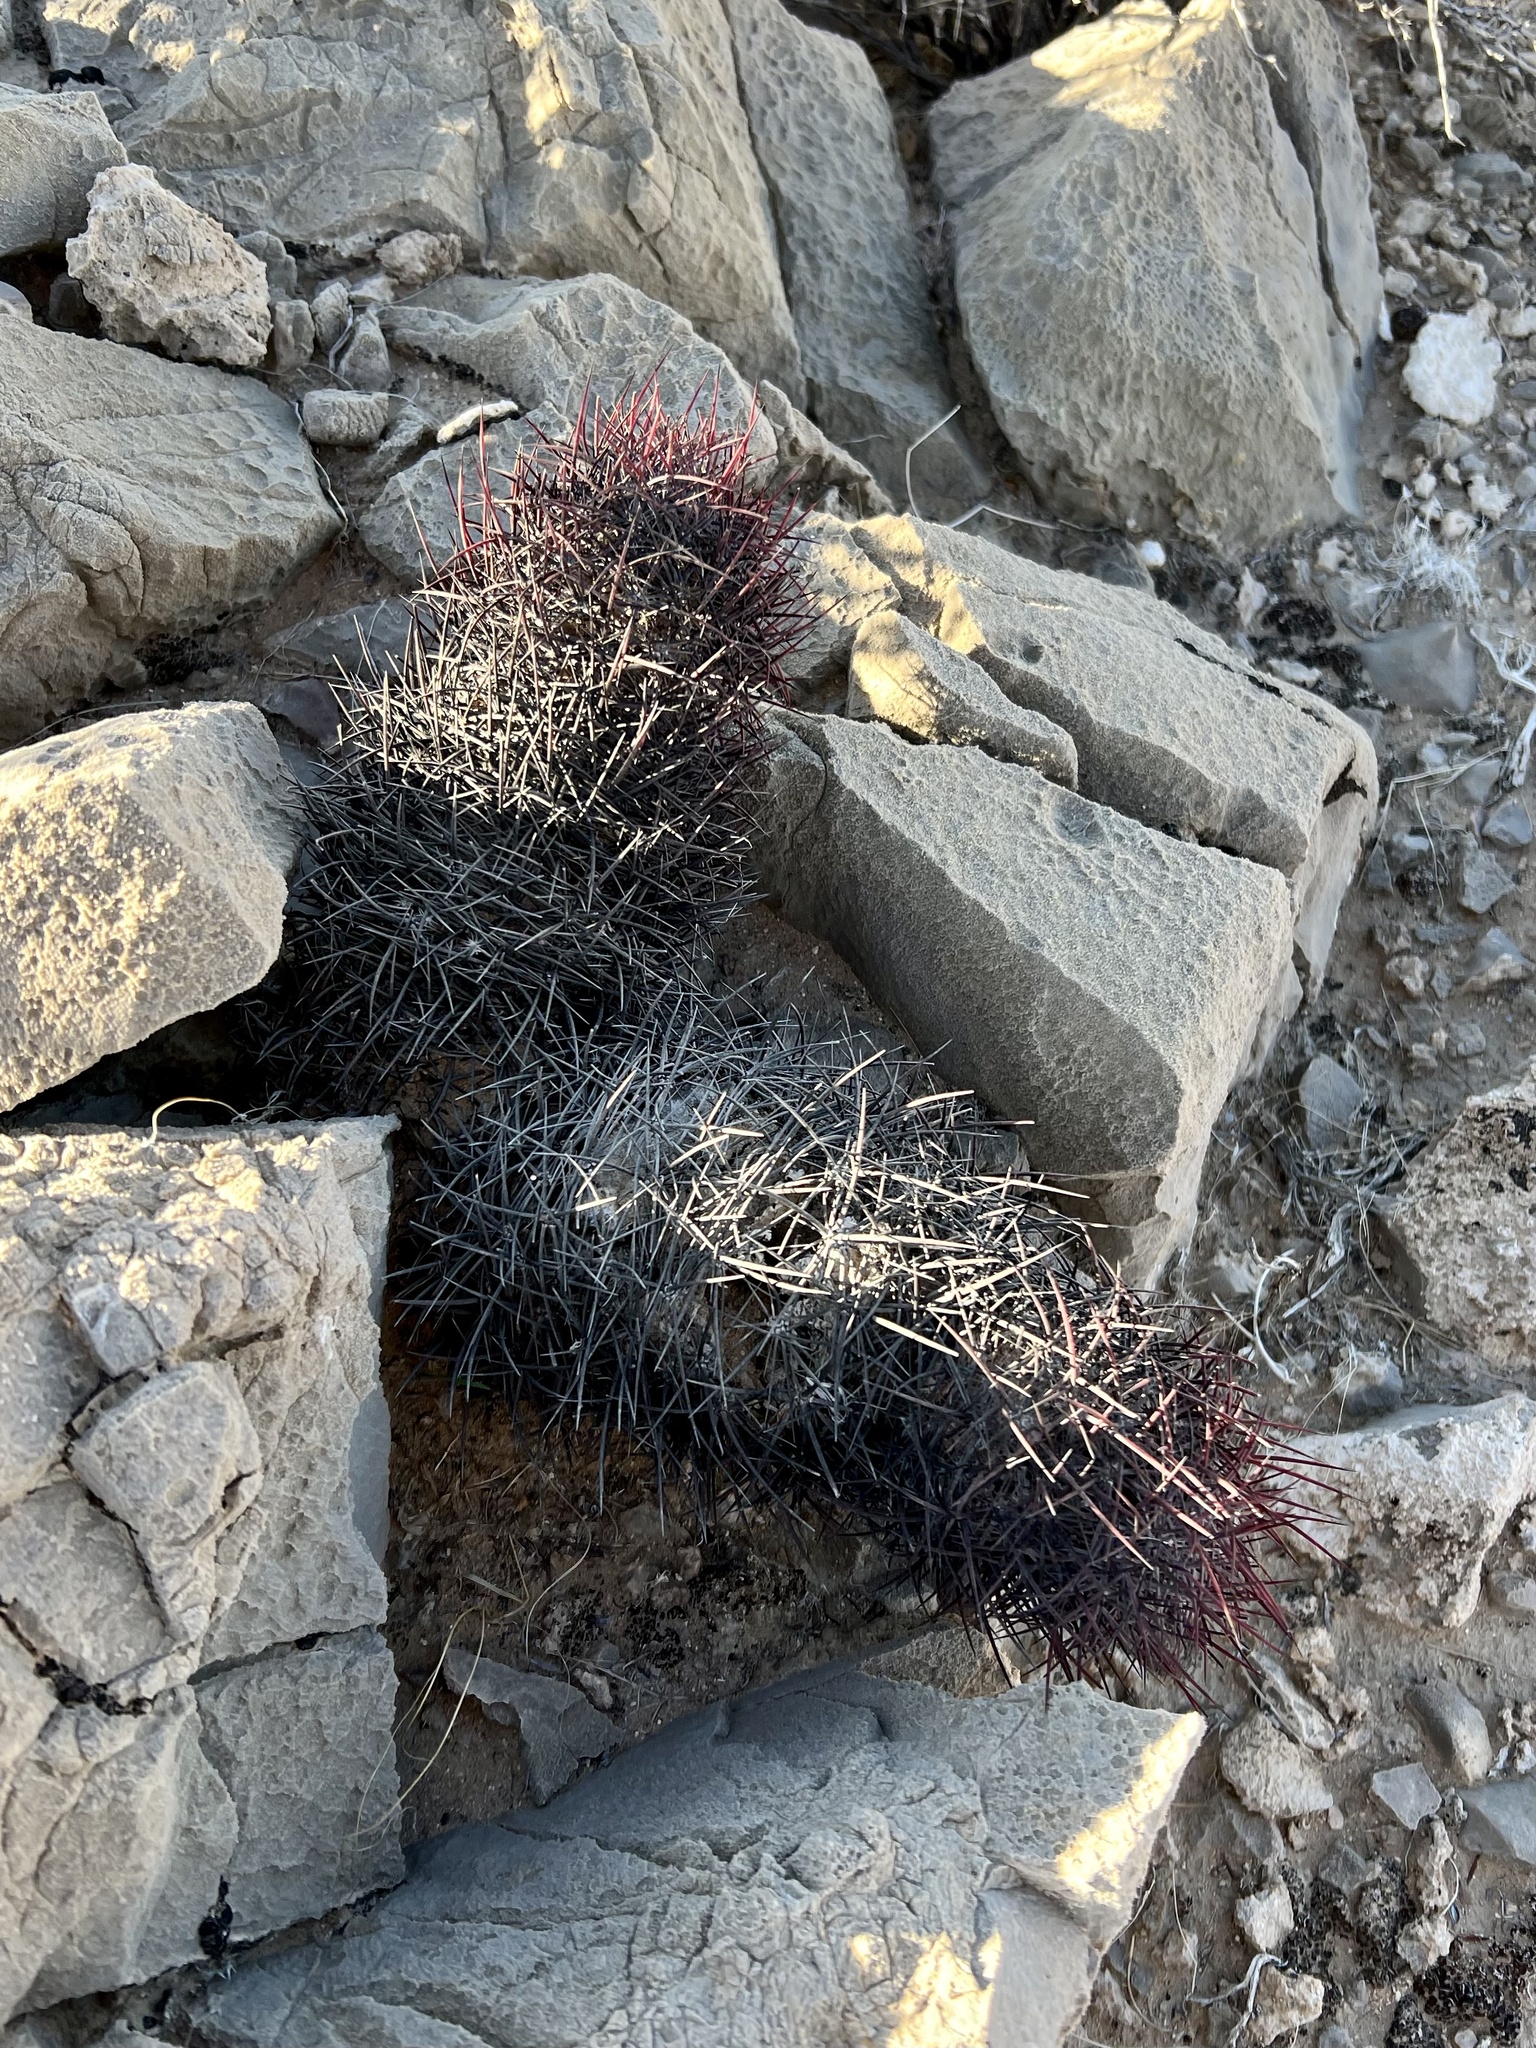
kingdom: Plantae
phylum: Tracheophyta
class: Magnoliopsida
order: Caryophyllales
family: Cactaceae
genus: Sclerocactus
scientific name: Sclerocactus johnsonii
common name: Eight-spine fishhook cactus
